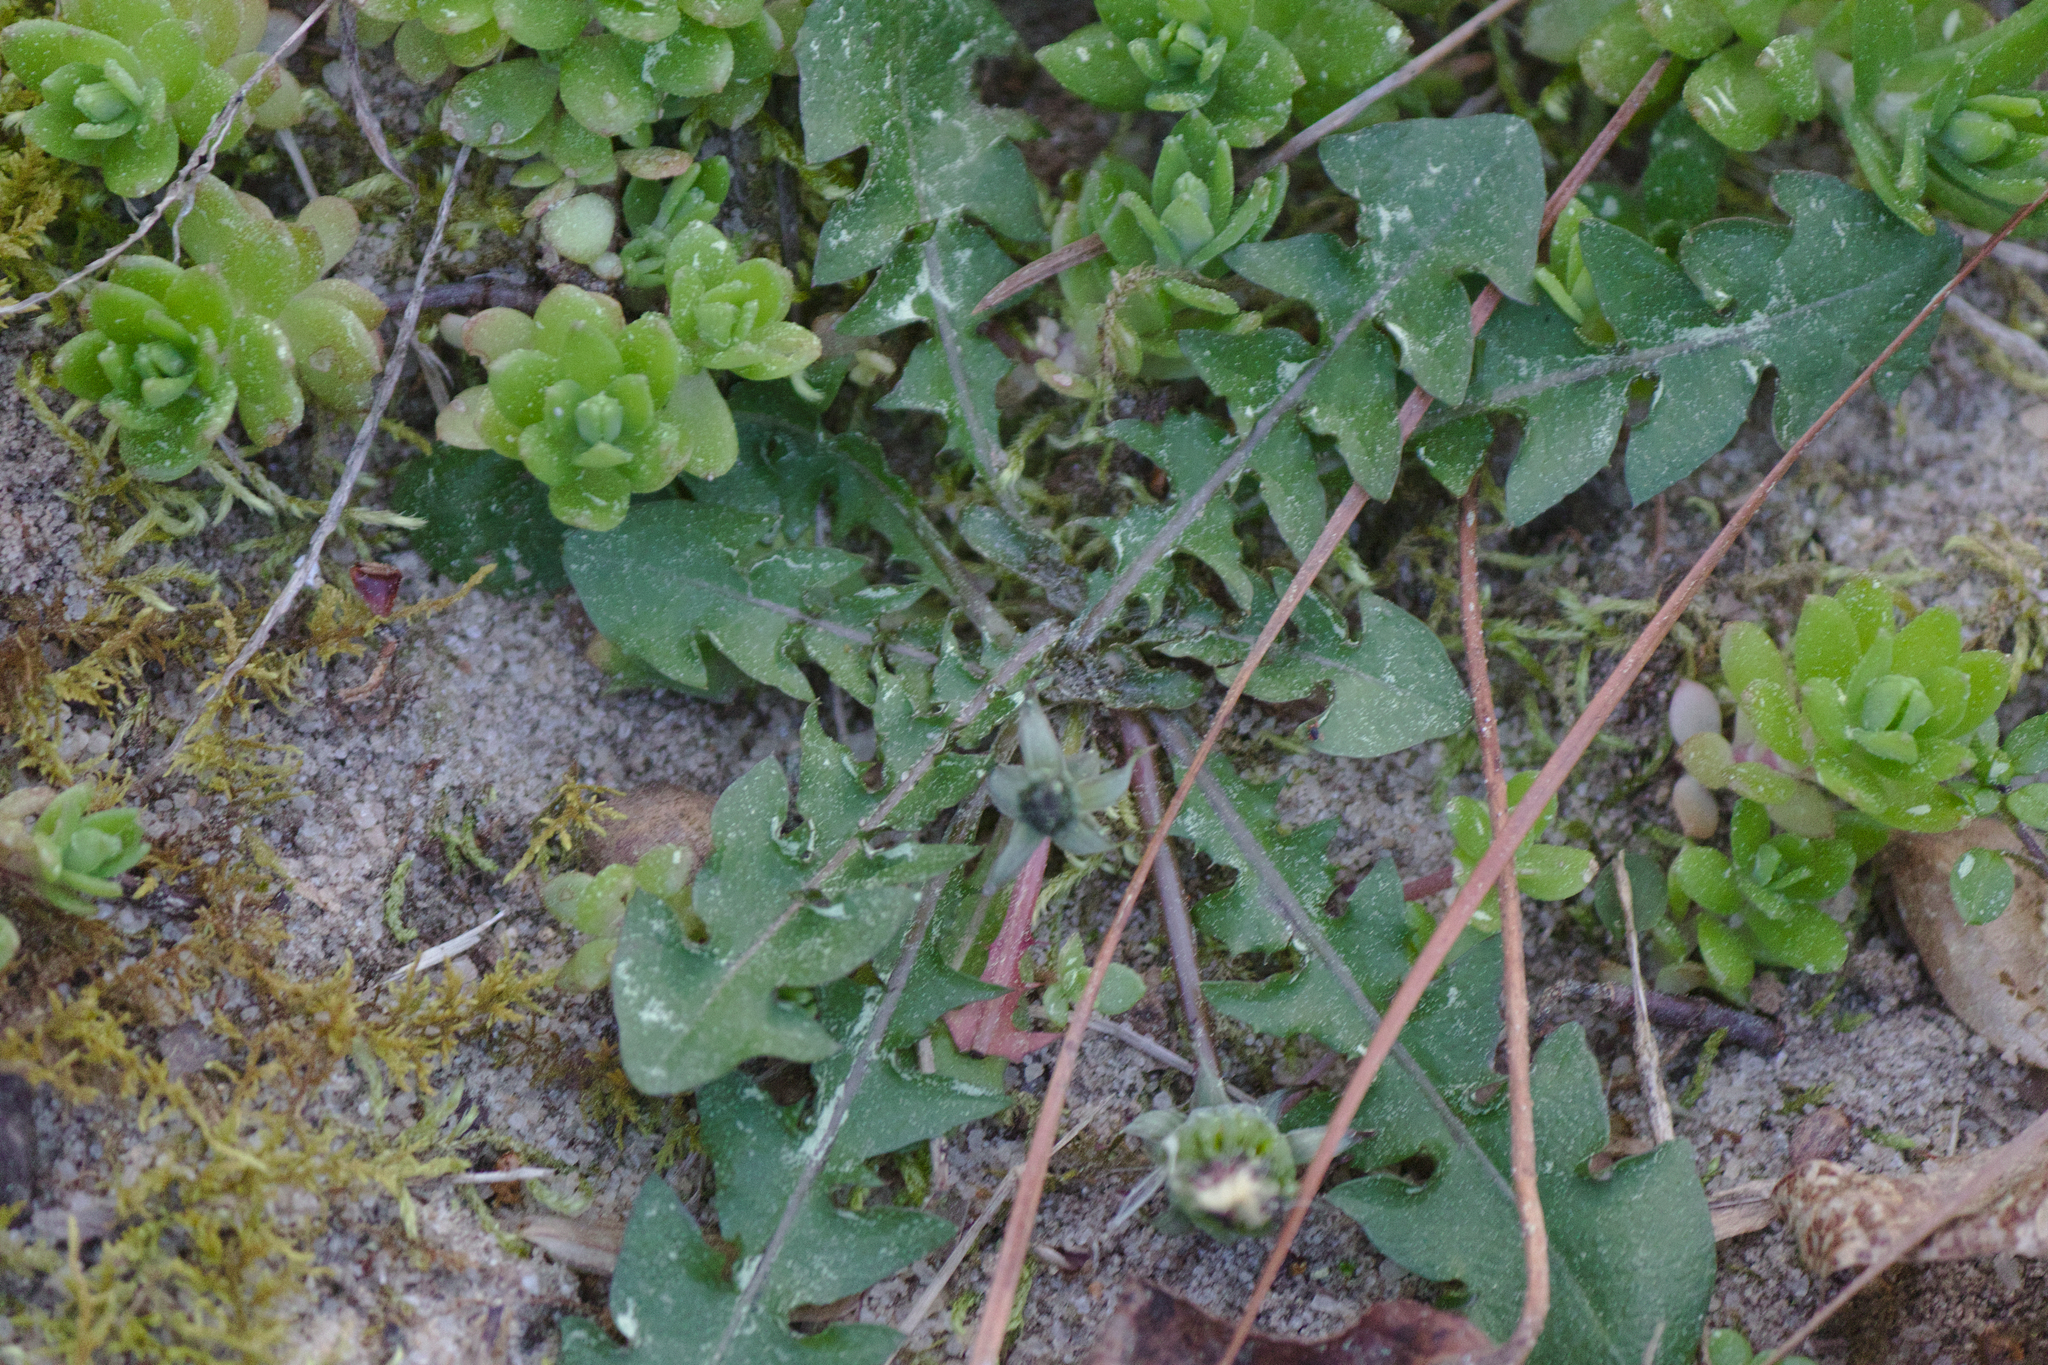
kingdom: Plantae
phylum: Tracheophyta
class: Magnoliopsida
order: Asterales
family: Asteraceae
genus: Taraxacum
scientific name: Taraxacum erythrospermum
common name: Rock dandelion
